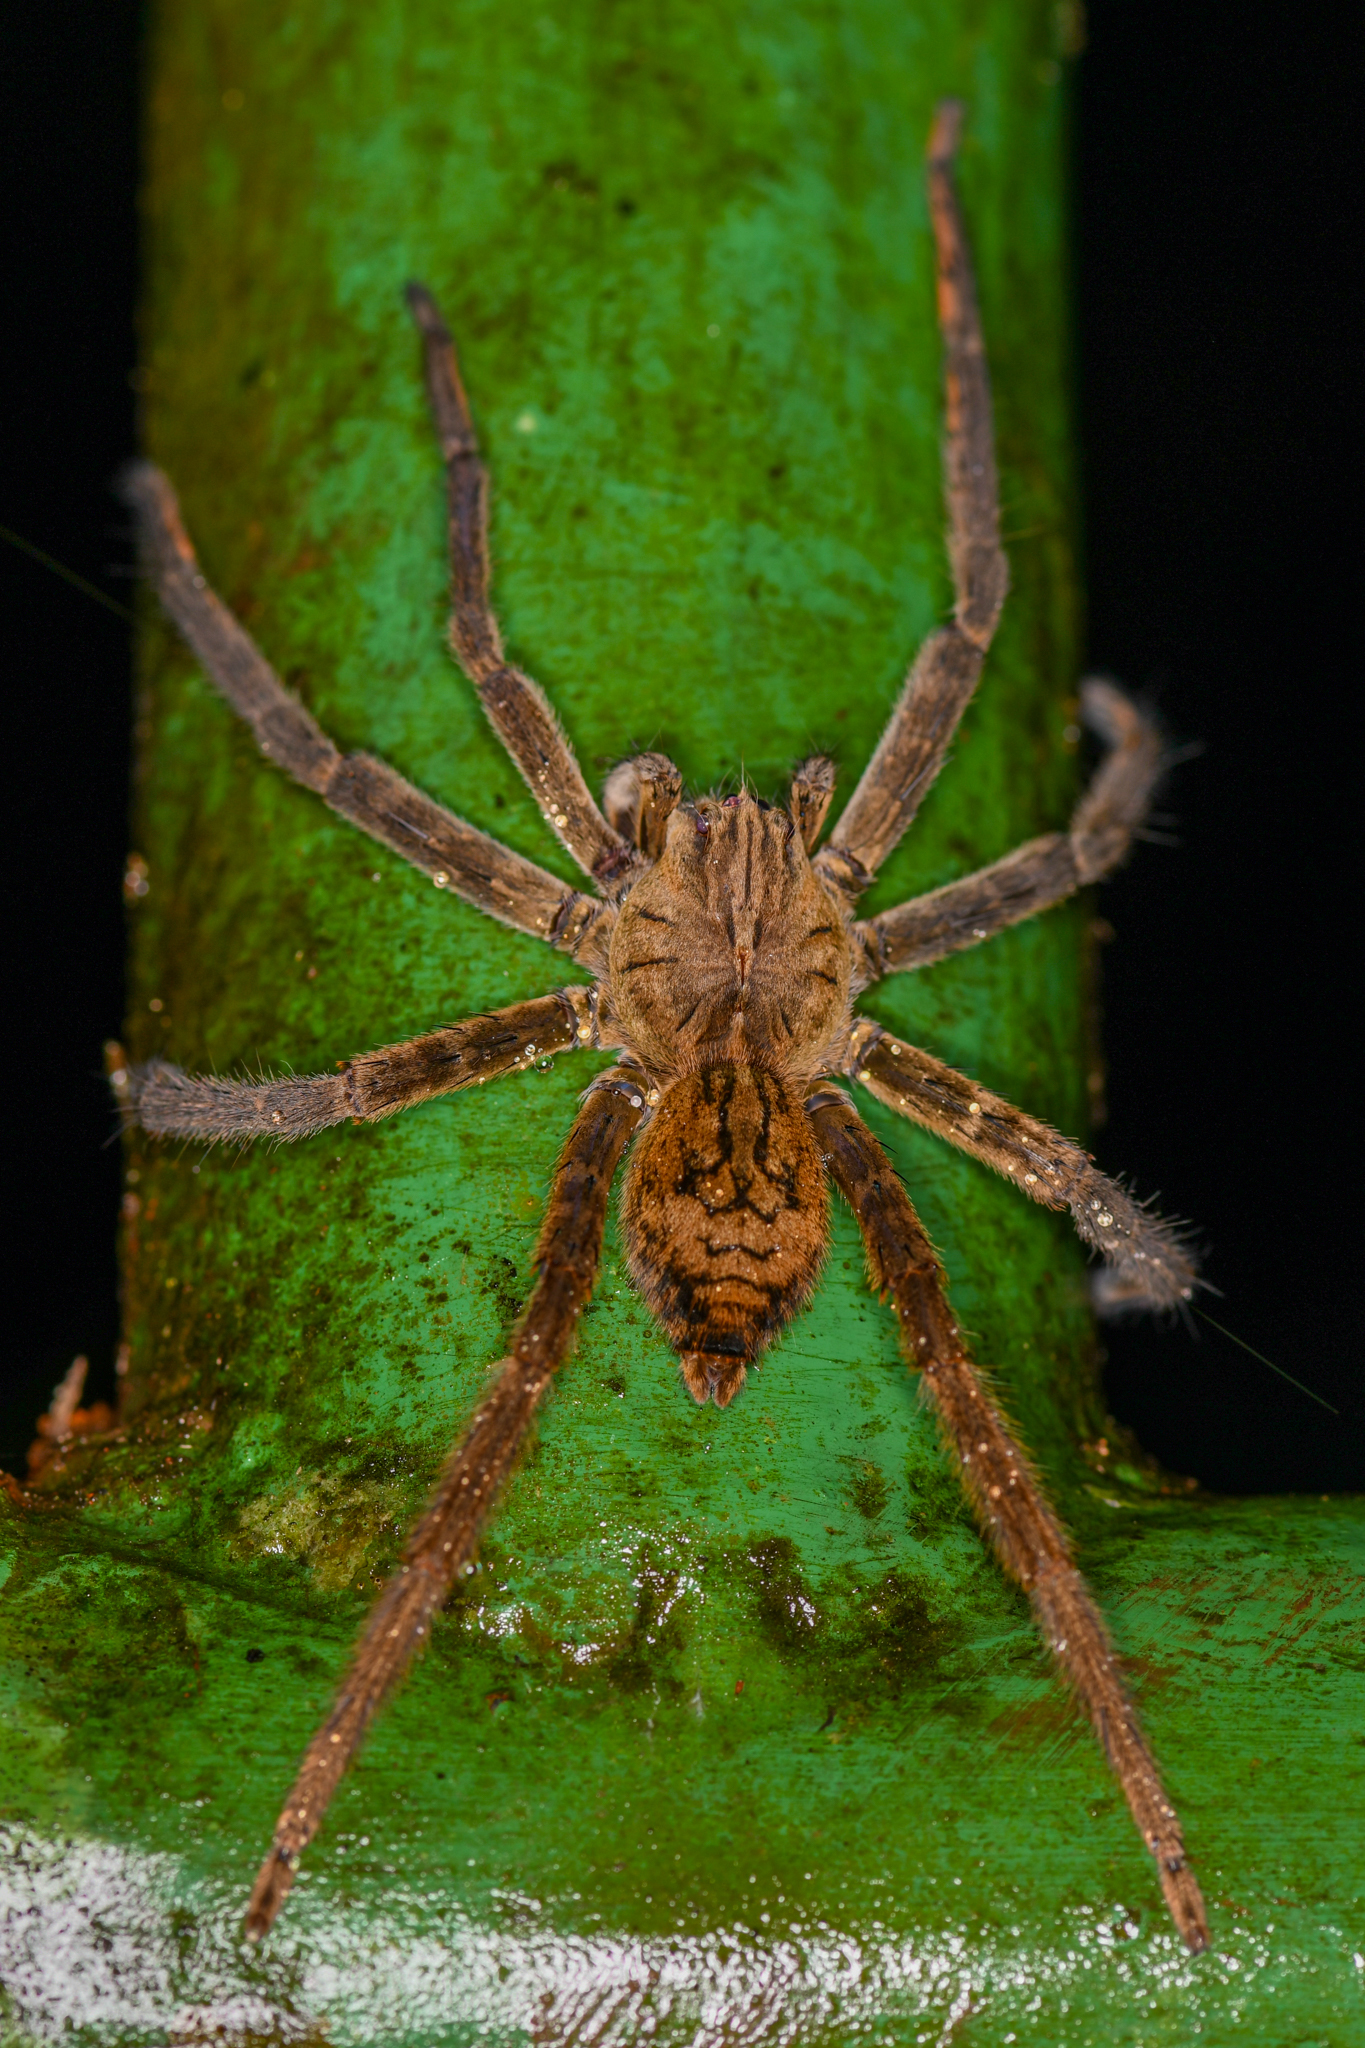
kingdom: Animalia
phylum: Arthropoda
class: Arachnida
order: Araneae
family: Trechaleidae
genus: Cupiennius
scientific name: Cupiennius coccineus
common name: Wandering spiders
